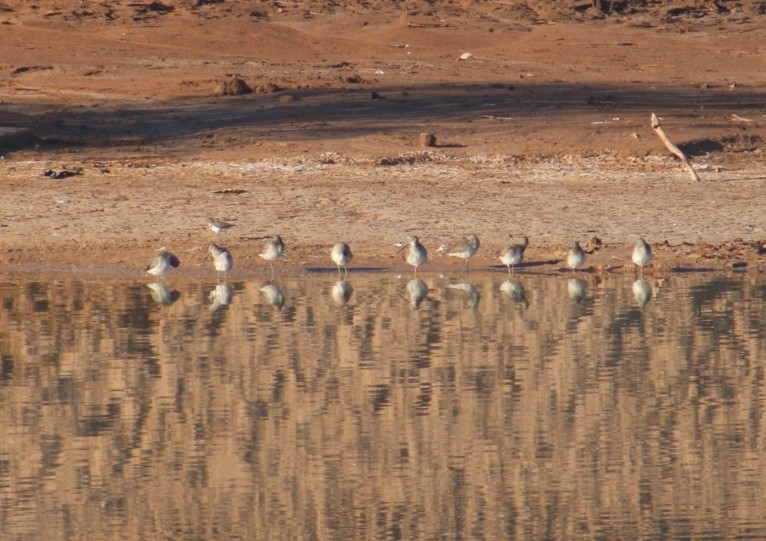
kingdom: Animalia
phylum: Chordata
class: Aves
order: Charadriiformes
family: Scolopacidae
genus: Limnodromus
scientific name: Limnodromus scolopaceus
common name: Long-billed dowitcher
